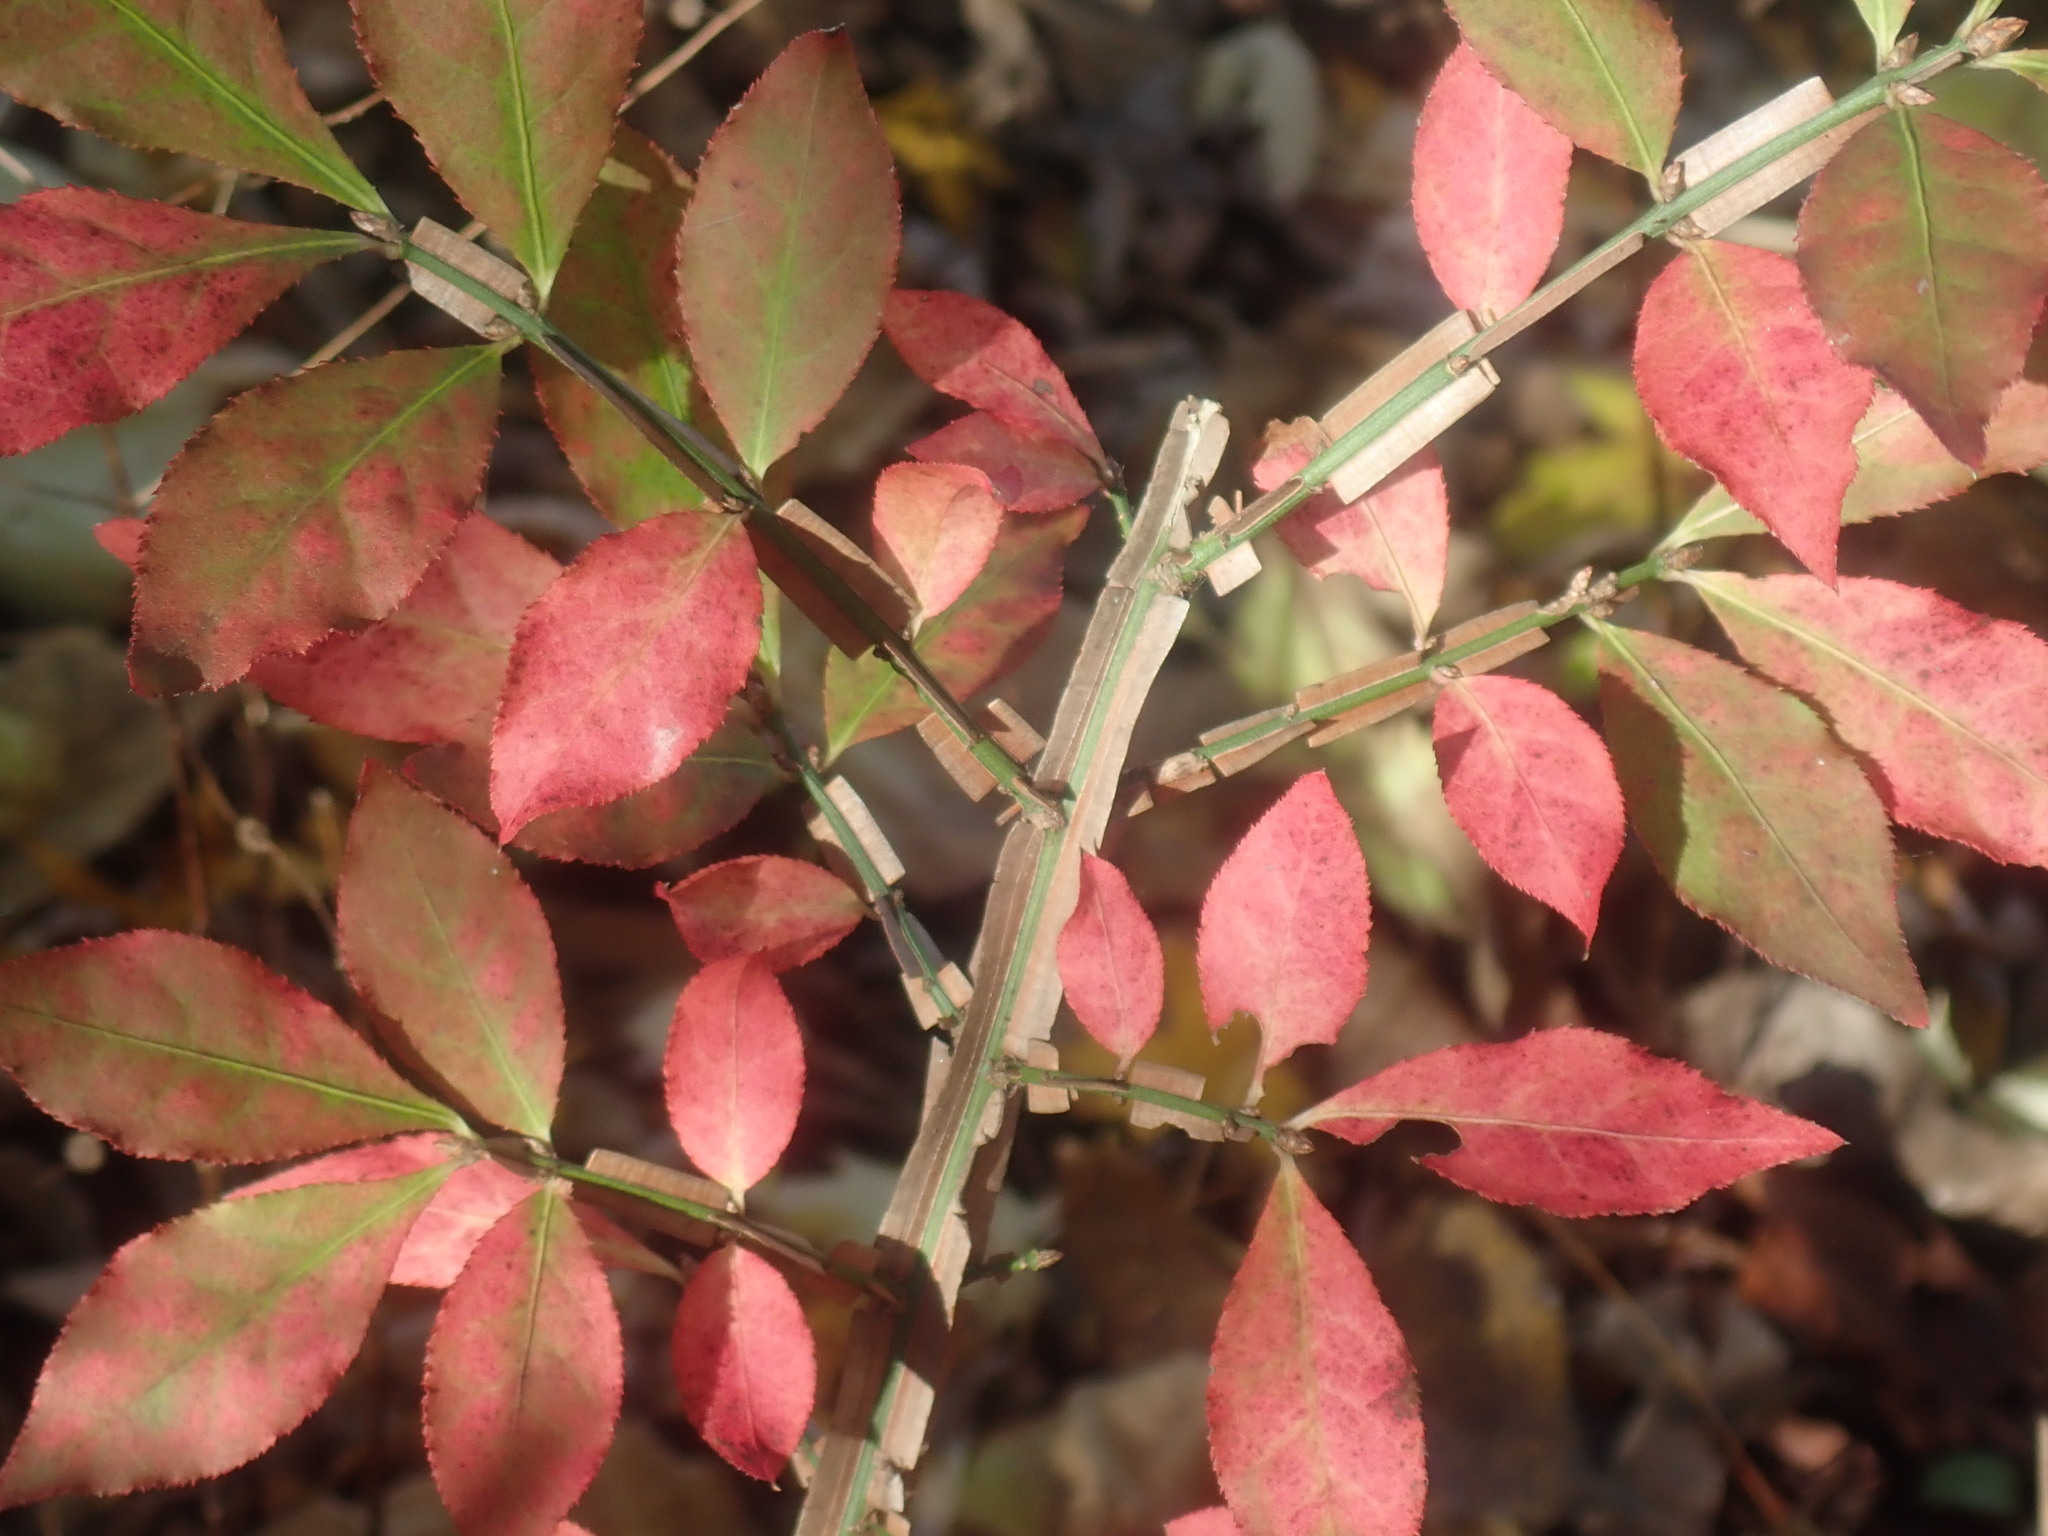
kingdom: Plantae
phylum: Tracheophyta
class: Magnoliopsida
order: Celastrales
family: Celastraceae
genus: Euonymus
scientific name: Euonymus alatus
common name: Winged euonymus
